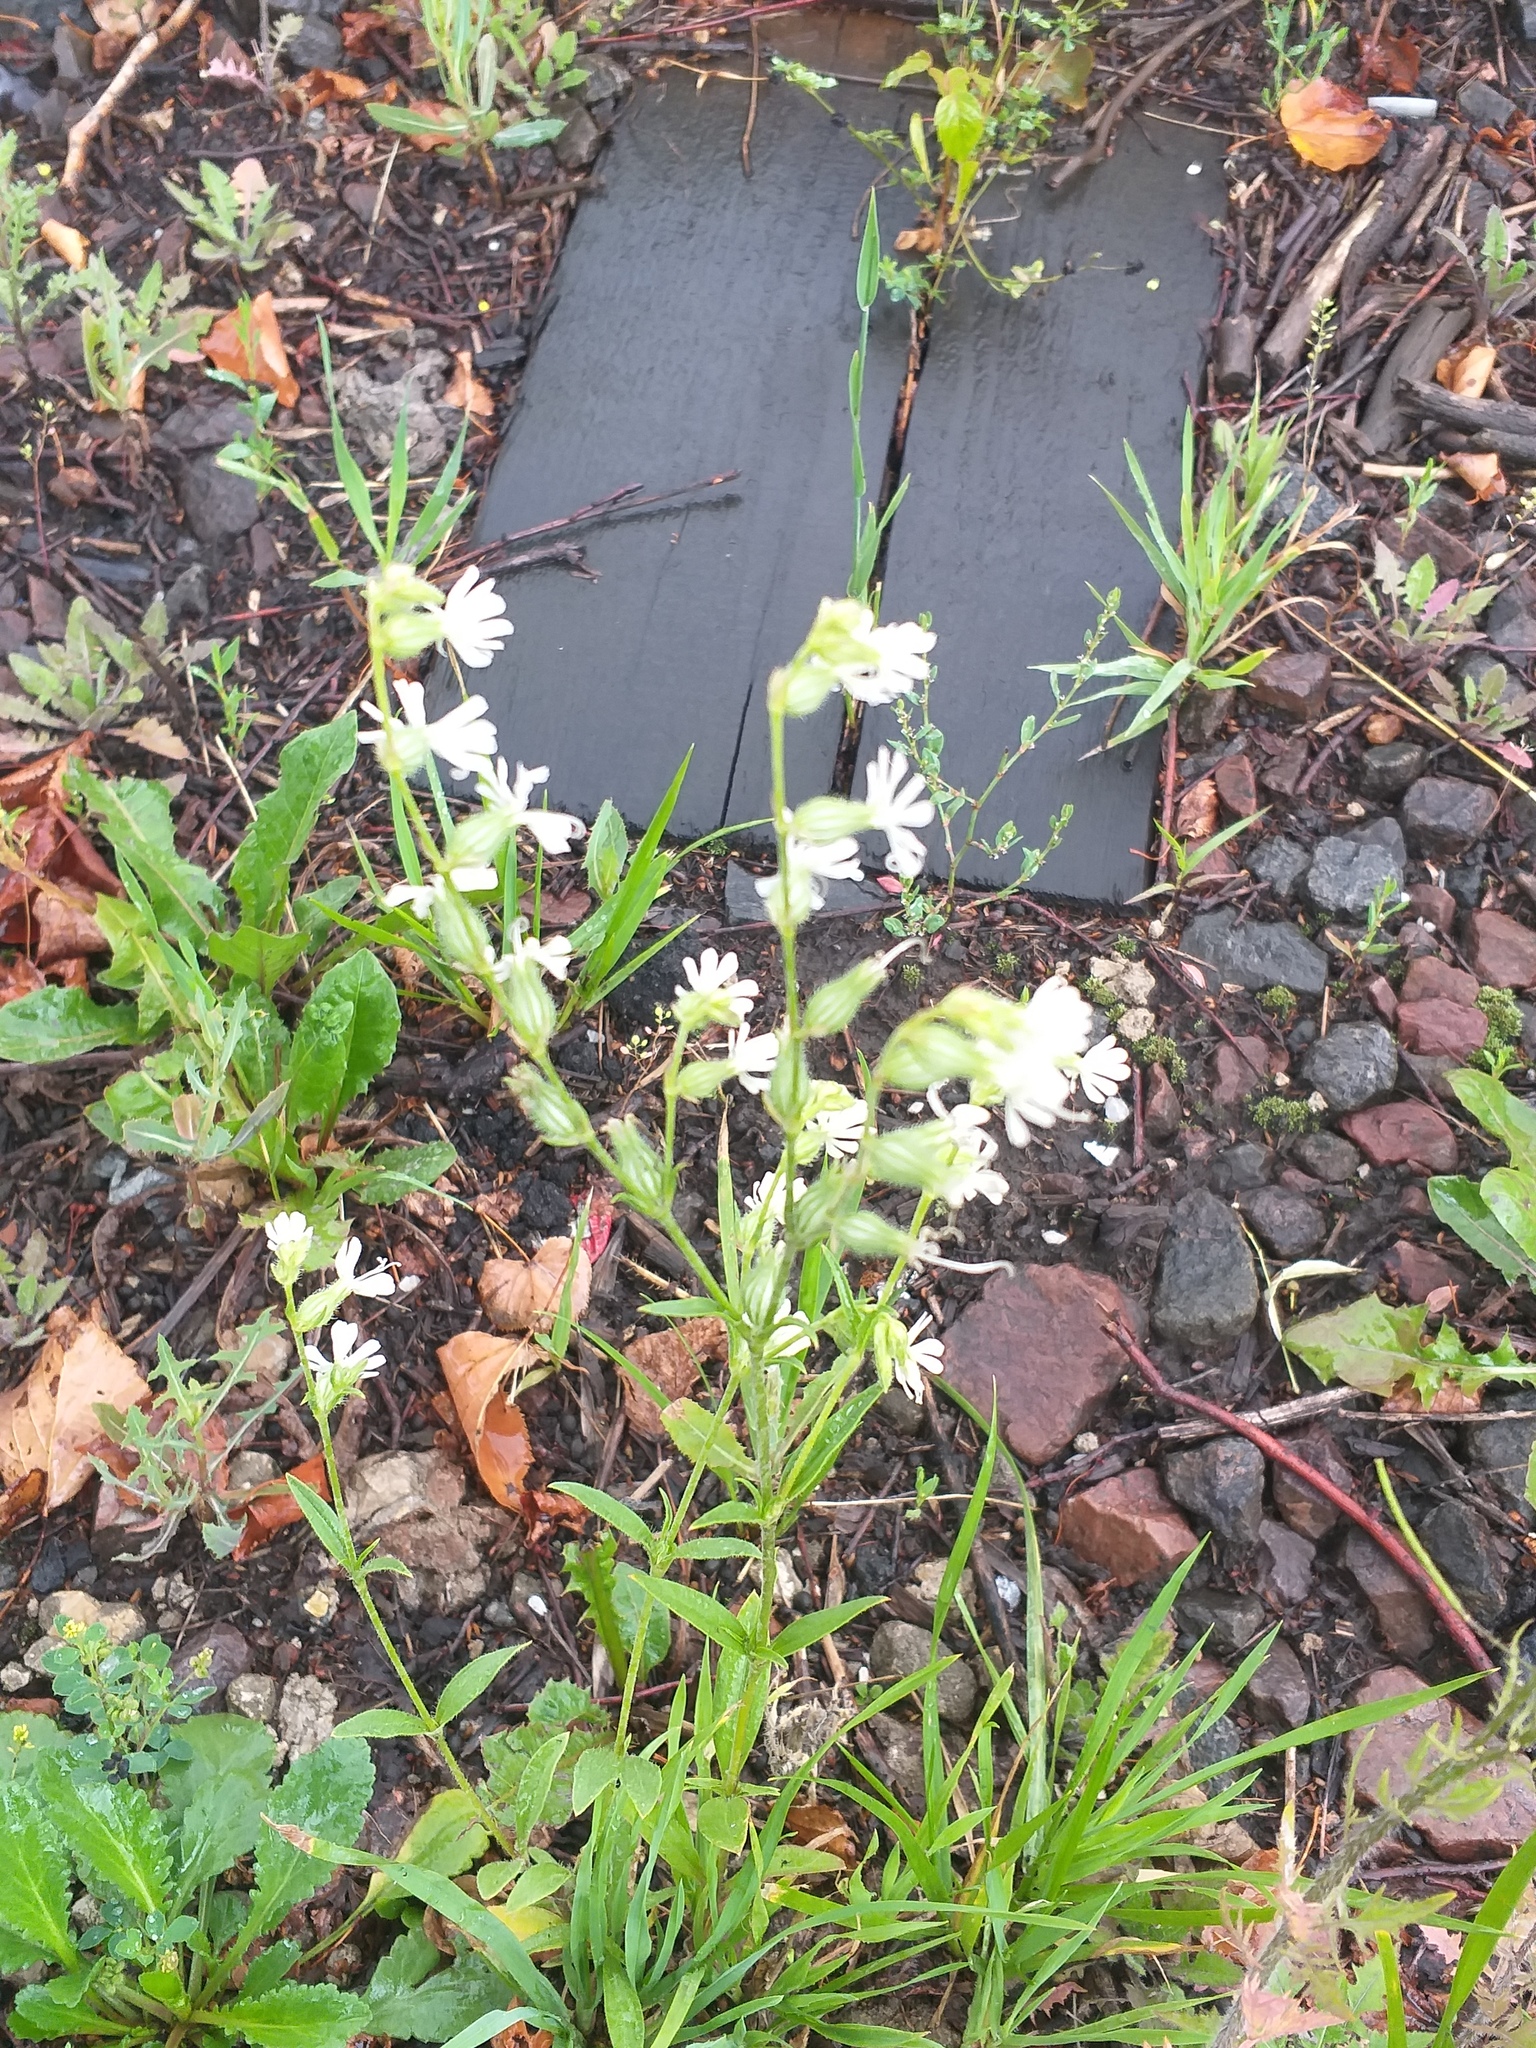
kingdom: Plantae
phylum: Tracheophyta
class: Magnoliopsida
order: Caryophyllales
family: Caryophyllaceae
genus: Silene
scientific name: Silene dichotoma
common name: Forked catchfly
